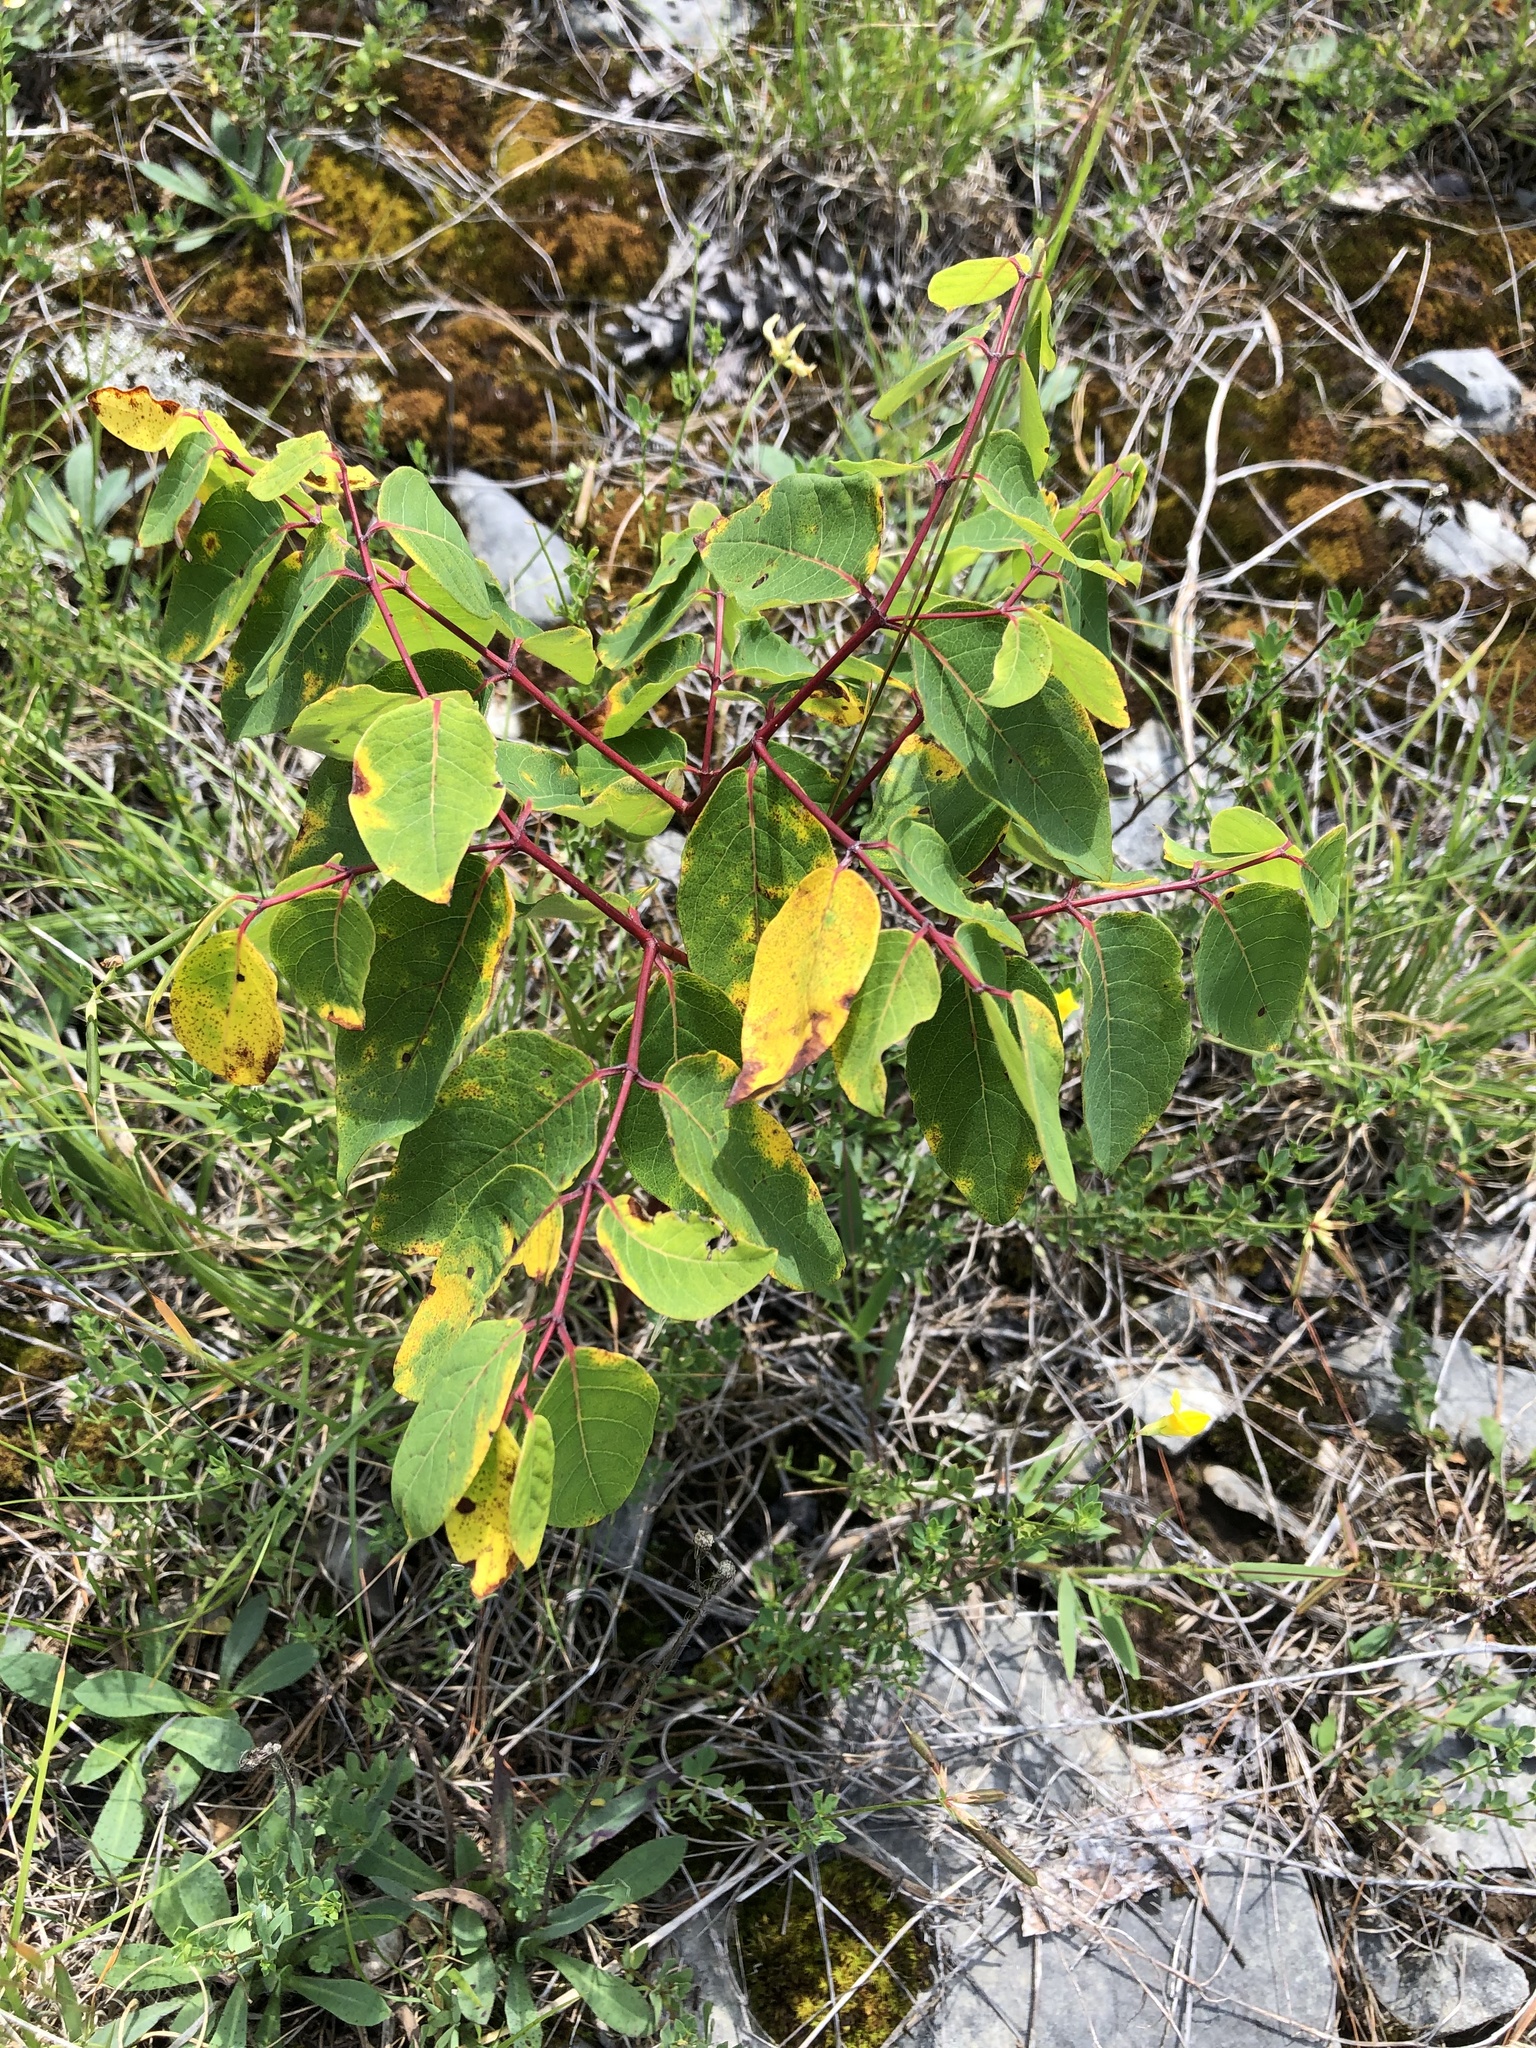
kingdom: Plantae
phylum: Tracheophyta
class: Magnoliopsida
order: Gentianales
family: Apocynaceae
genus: Apocynum
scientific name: Apocynum androsaemifolium
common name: Spreading dogbane
